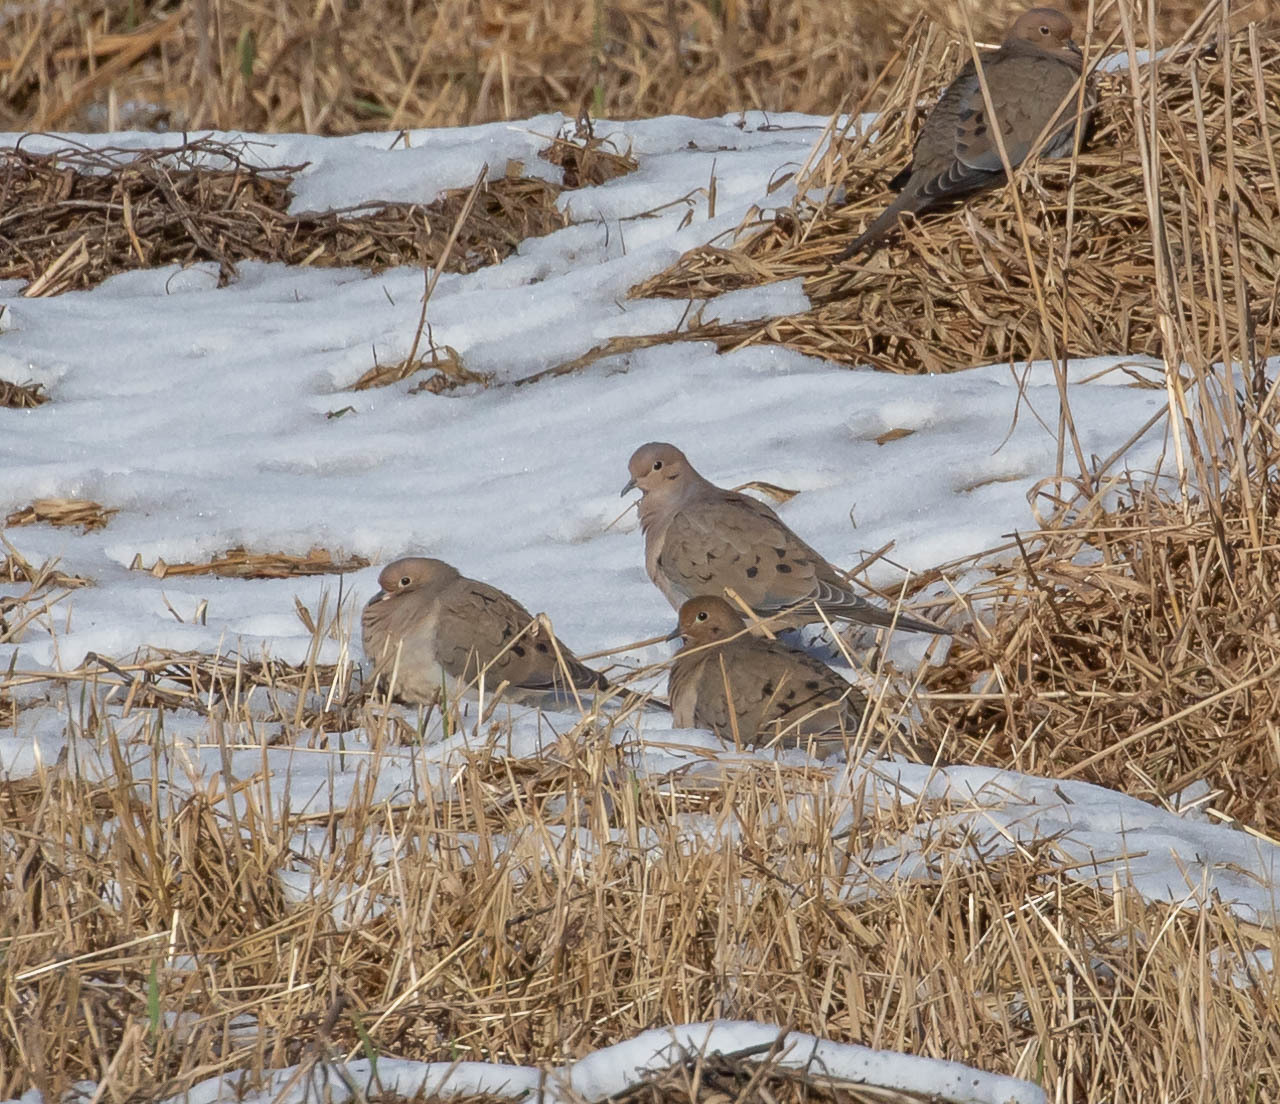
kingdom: Animalia
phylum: Chordata
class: Aves
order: Columbiformes
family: Columbidae
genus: Zenaida
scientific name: Zenaida macroura
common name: Mourning dove
